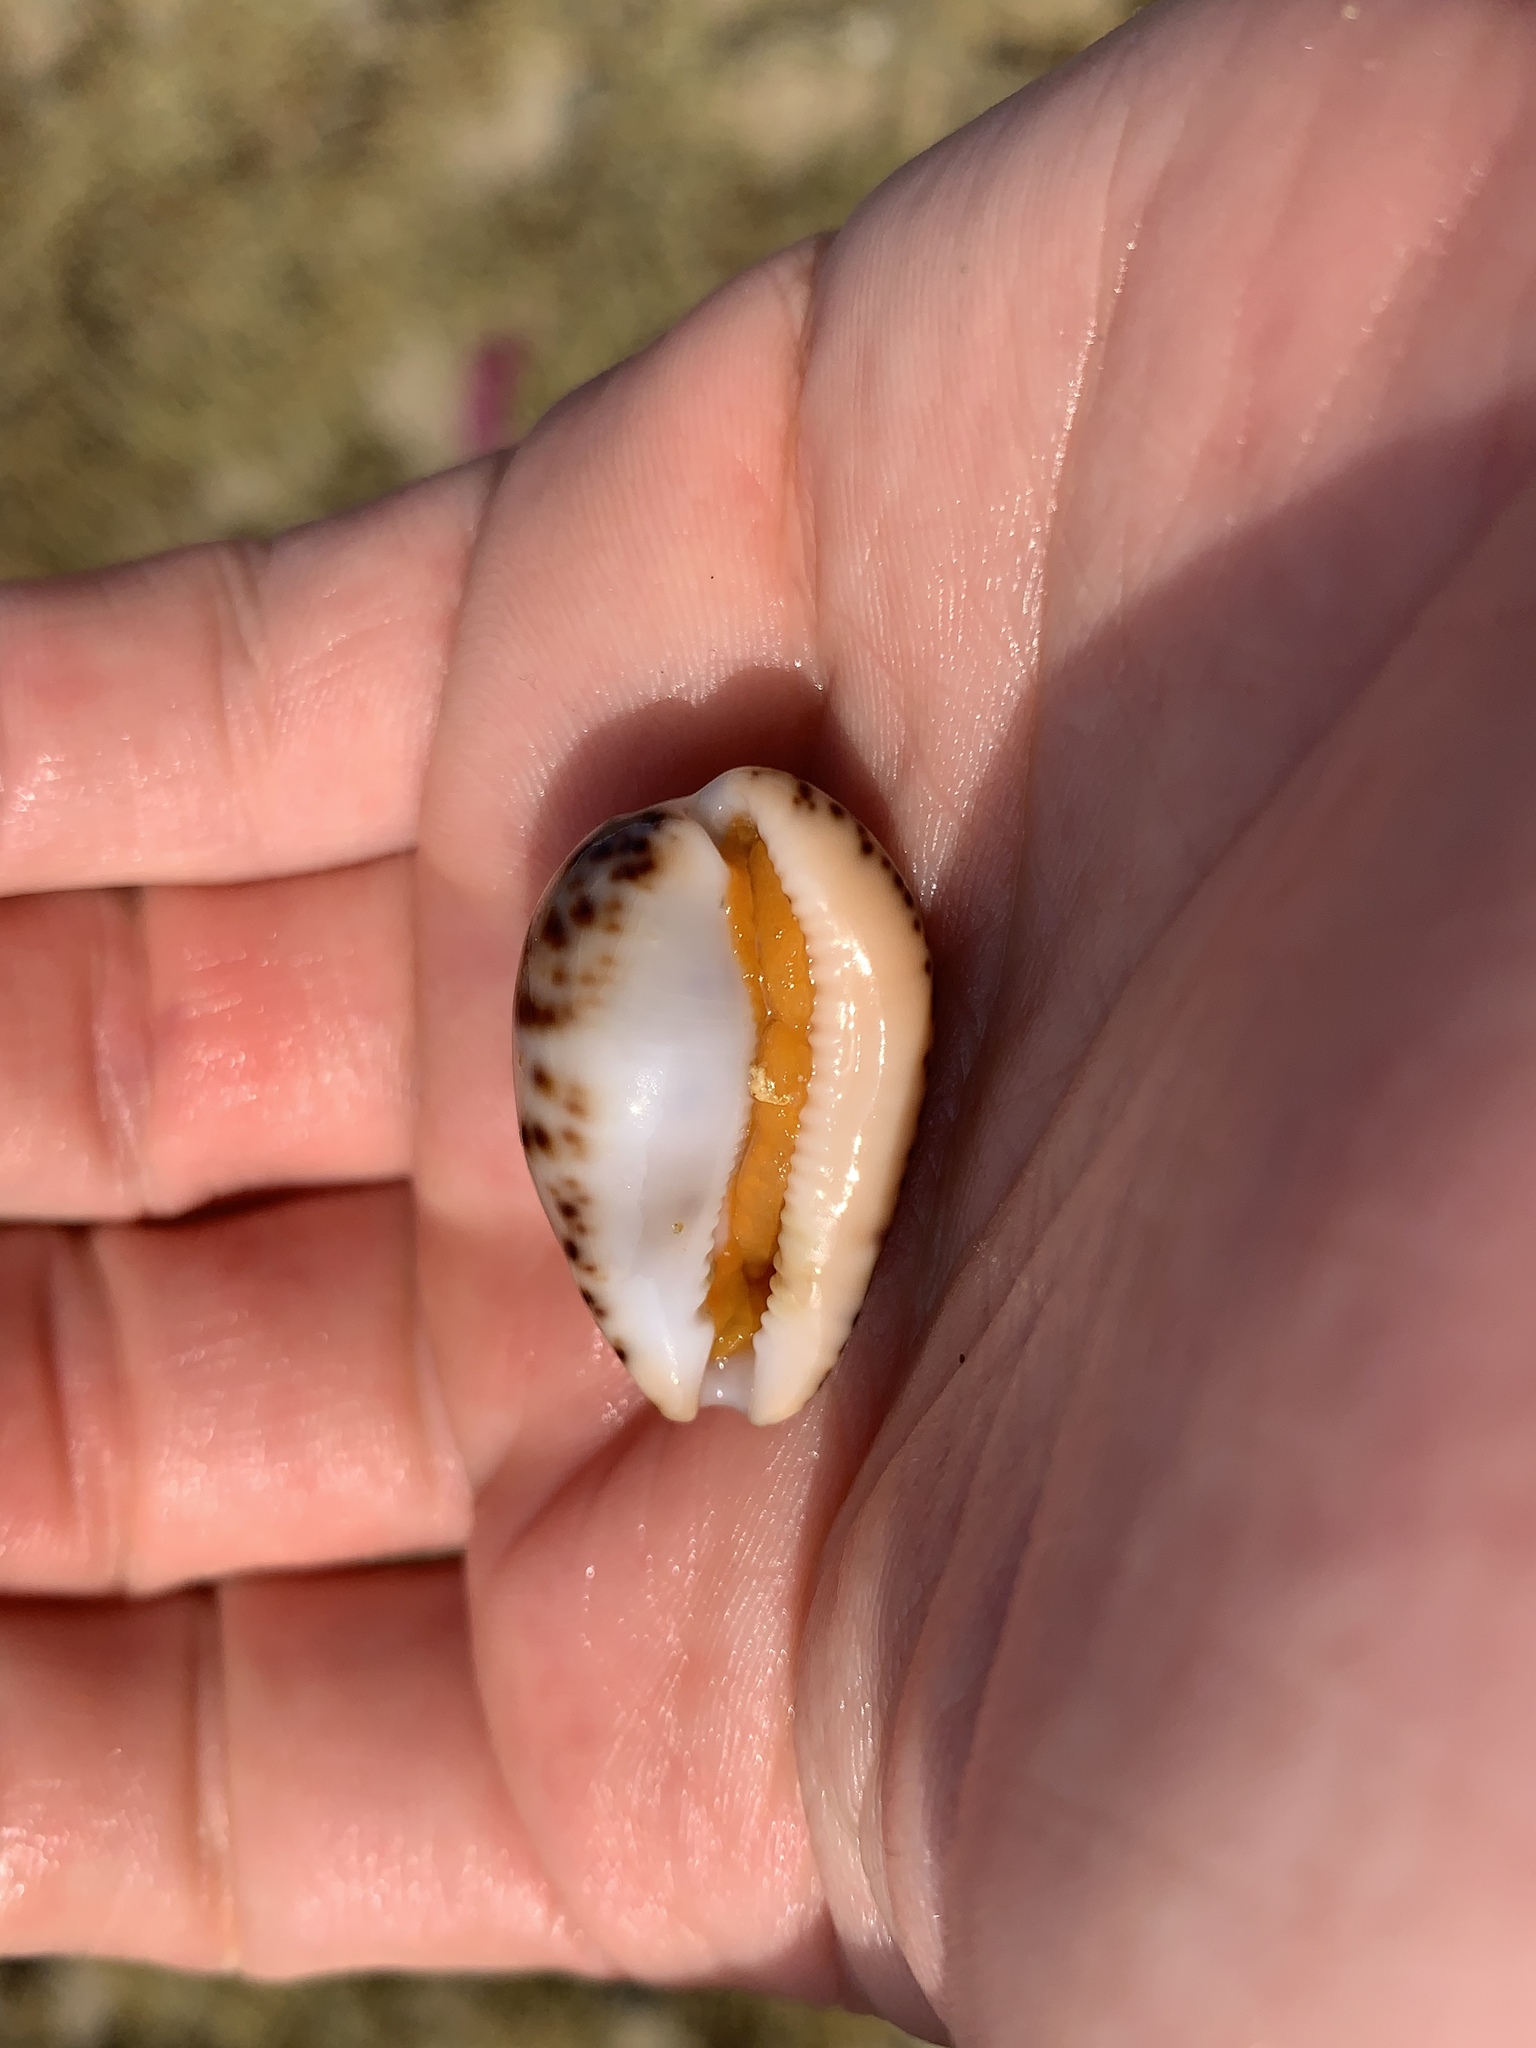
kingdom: Animalia
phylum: Mollusca
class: Gastropoda
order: Littorinimorpha
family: Cypraeidae
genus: Notocypraea
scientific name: Notocypraea angustata
